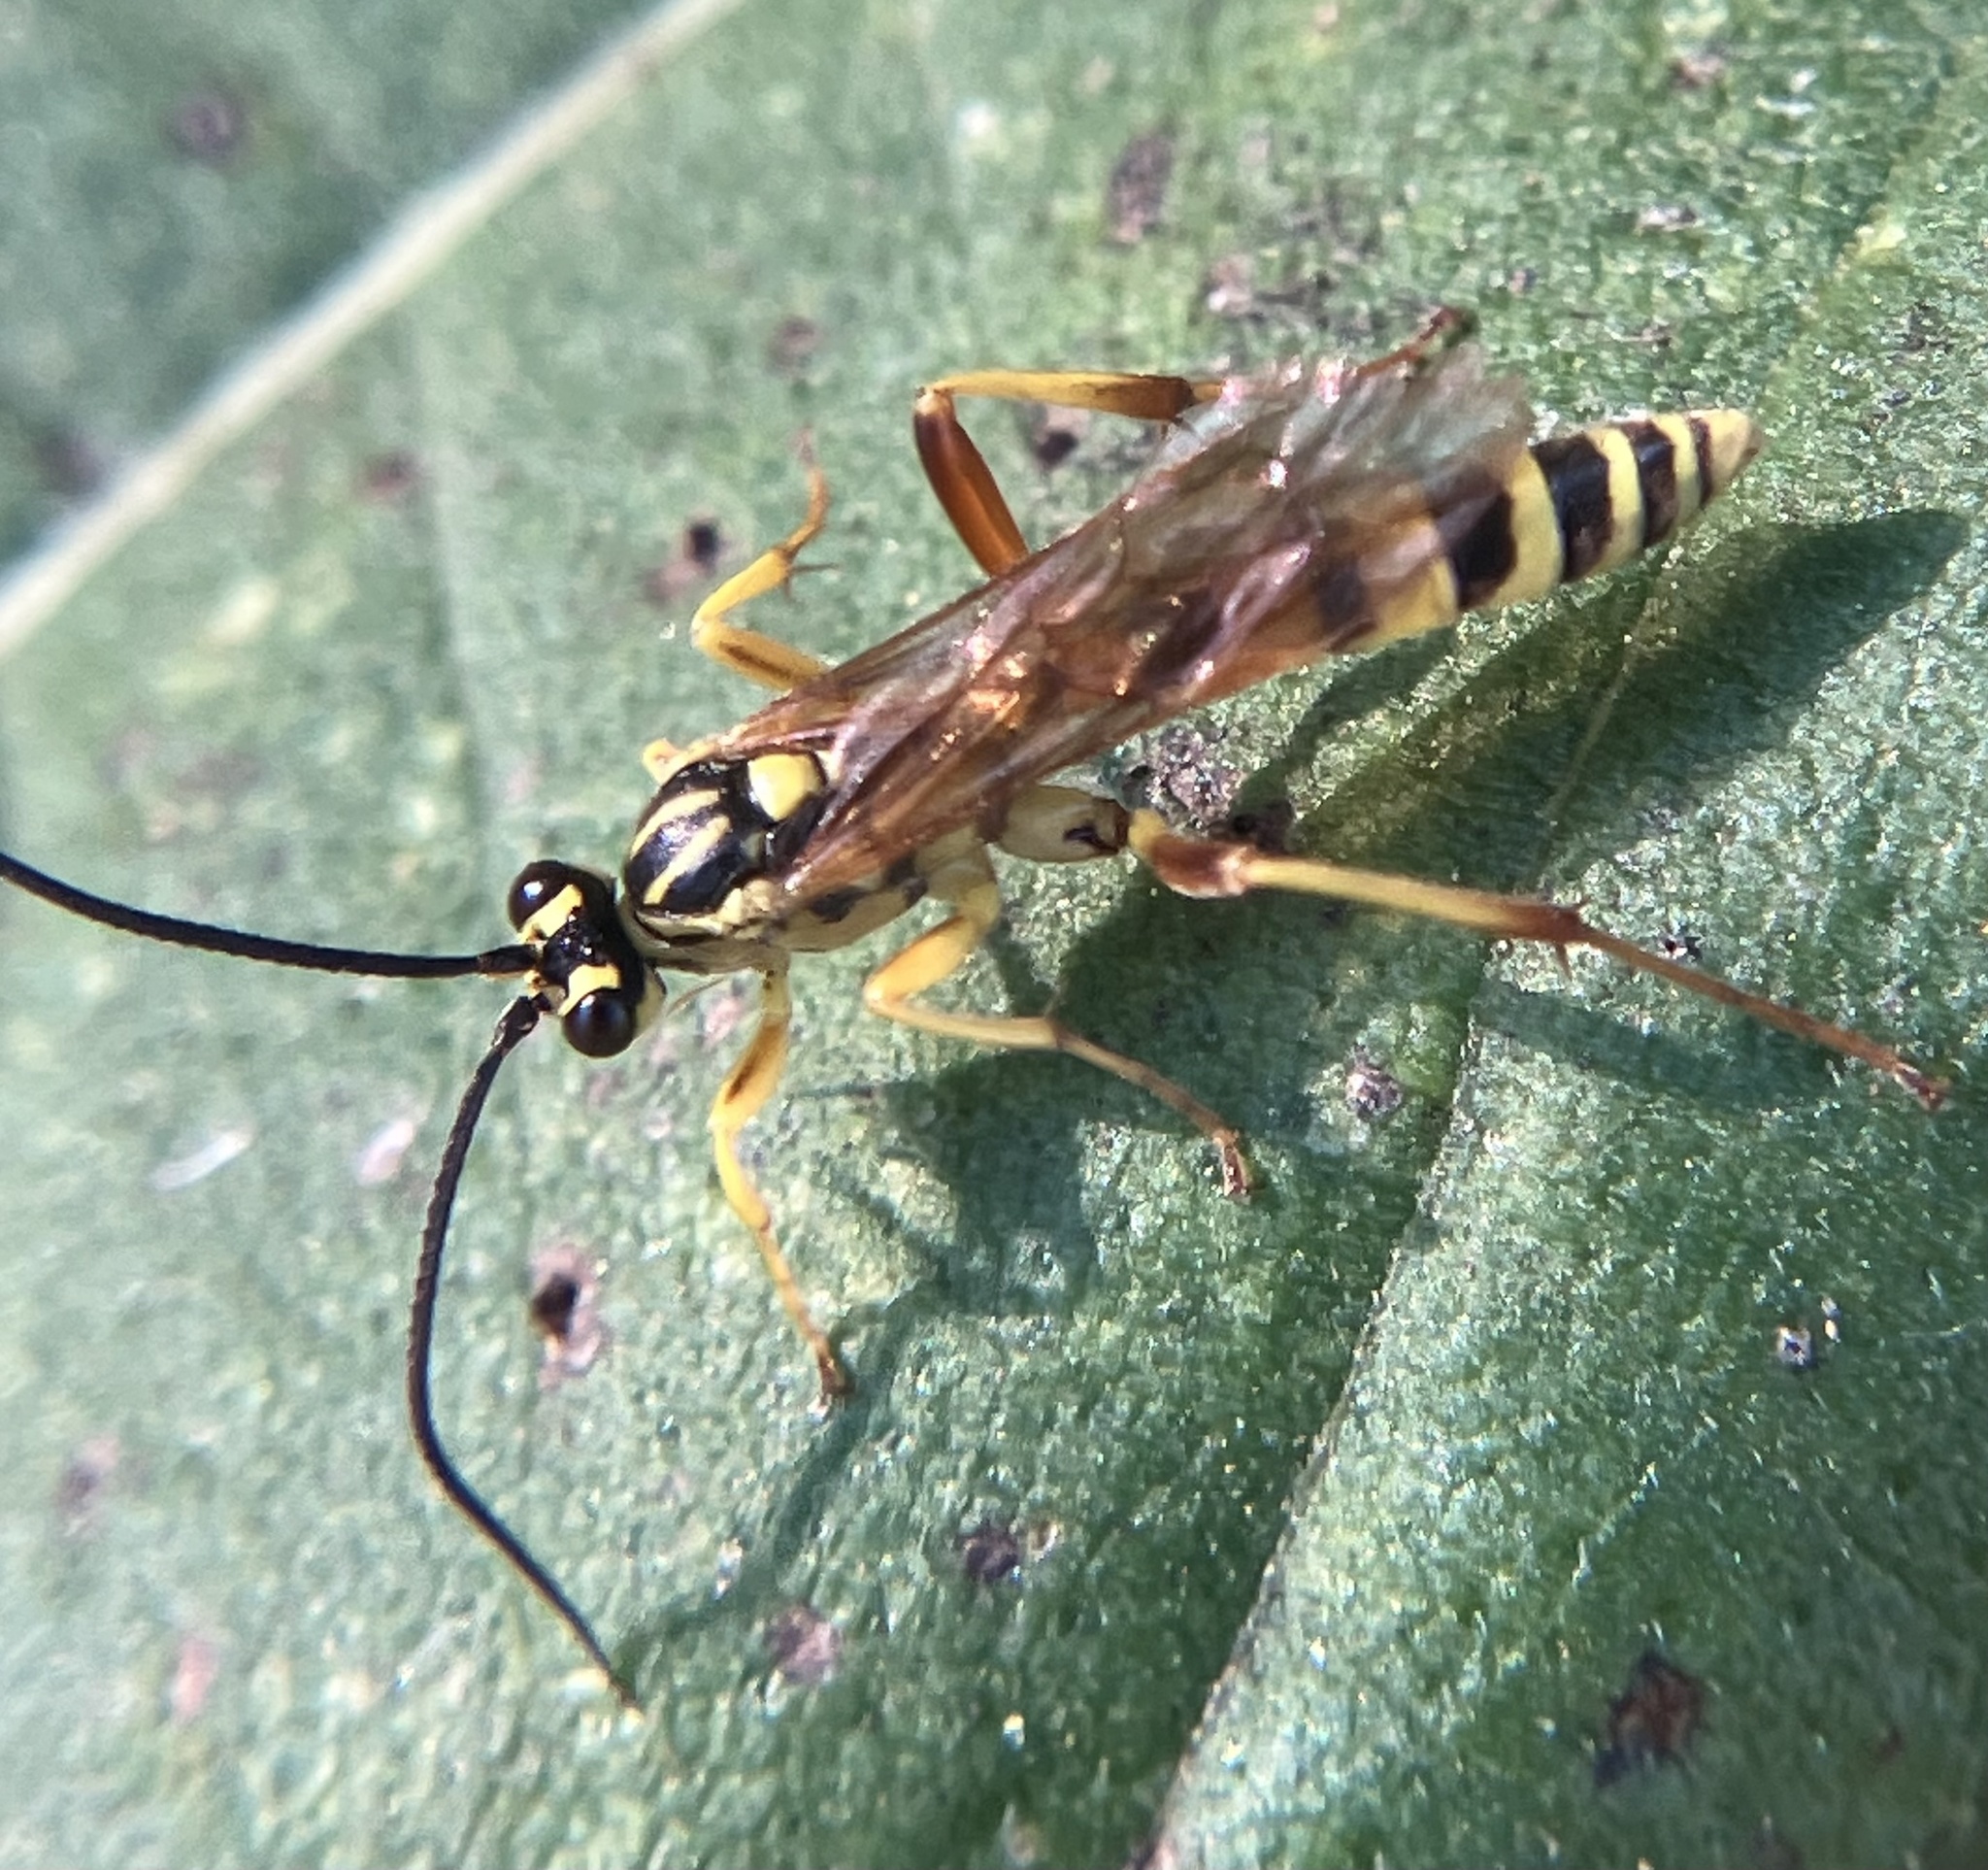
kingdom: Animalia
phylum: Arthropoda
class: Insecta
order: Hymenoptera
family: Ichneumonidae
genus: Setanta
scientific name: Setanta compta
